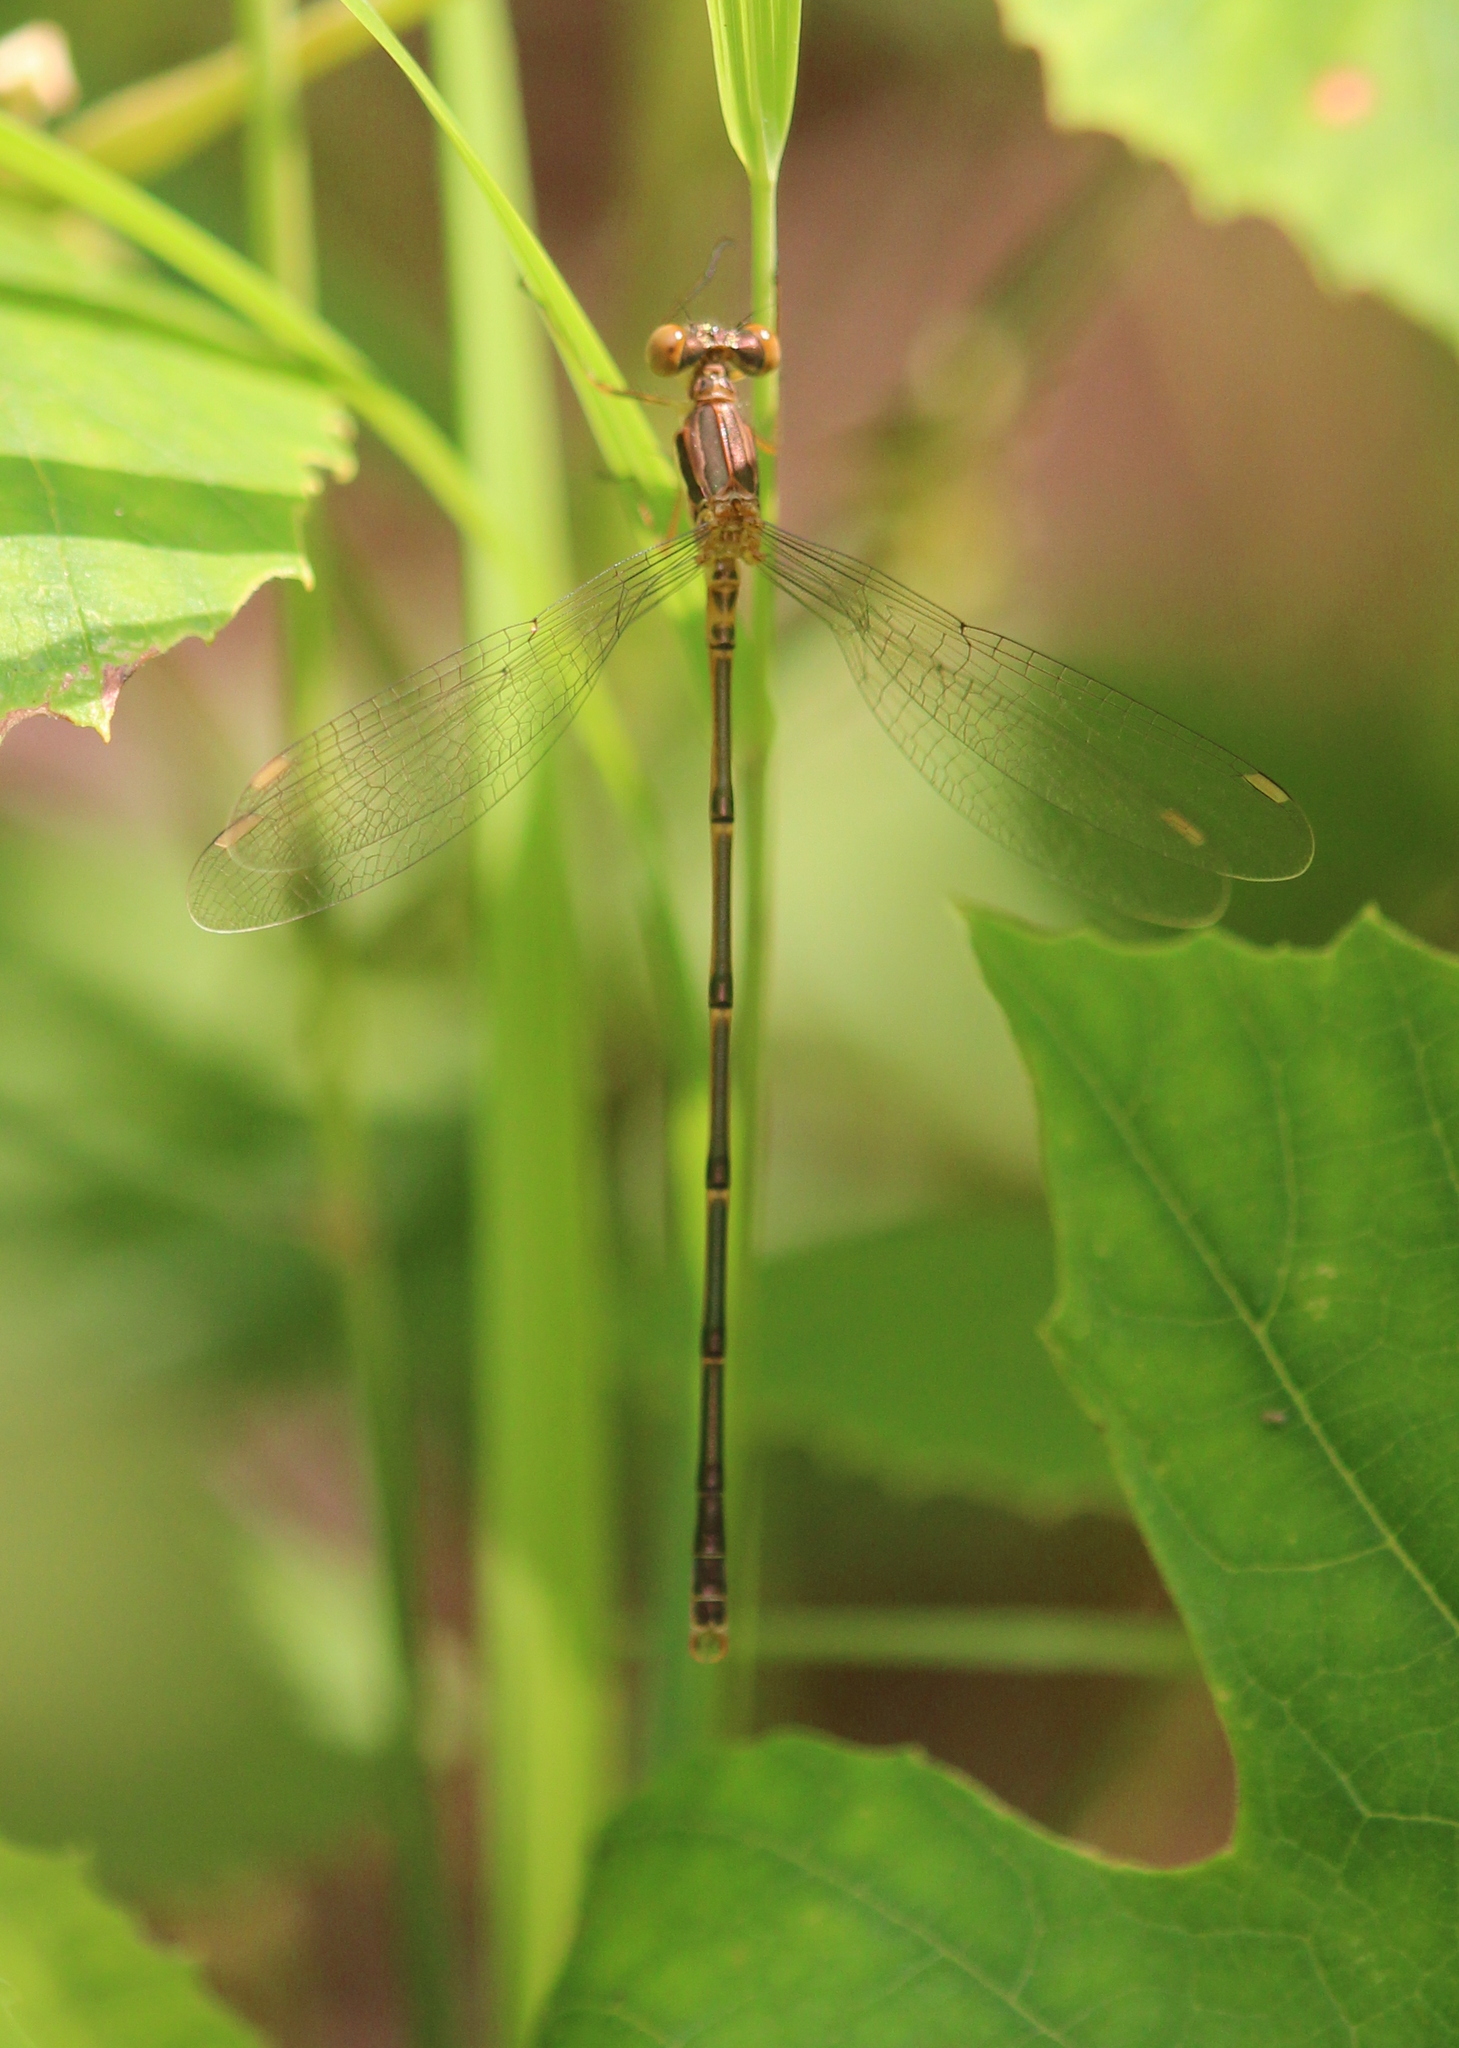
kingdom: Animalia
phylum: Arthropoda
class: Insecta
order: Odonata
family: Lestidae
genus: Lestes
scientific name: Lestes rectangularis
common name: Slender spreadwing
